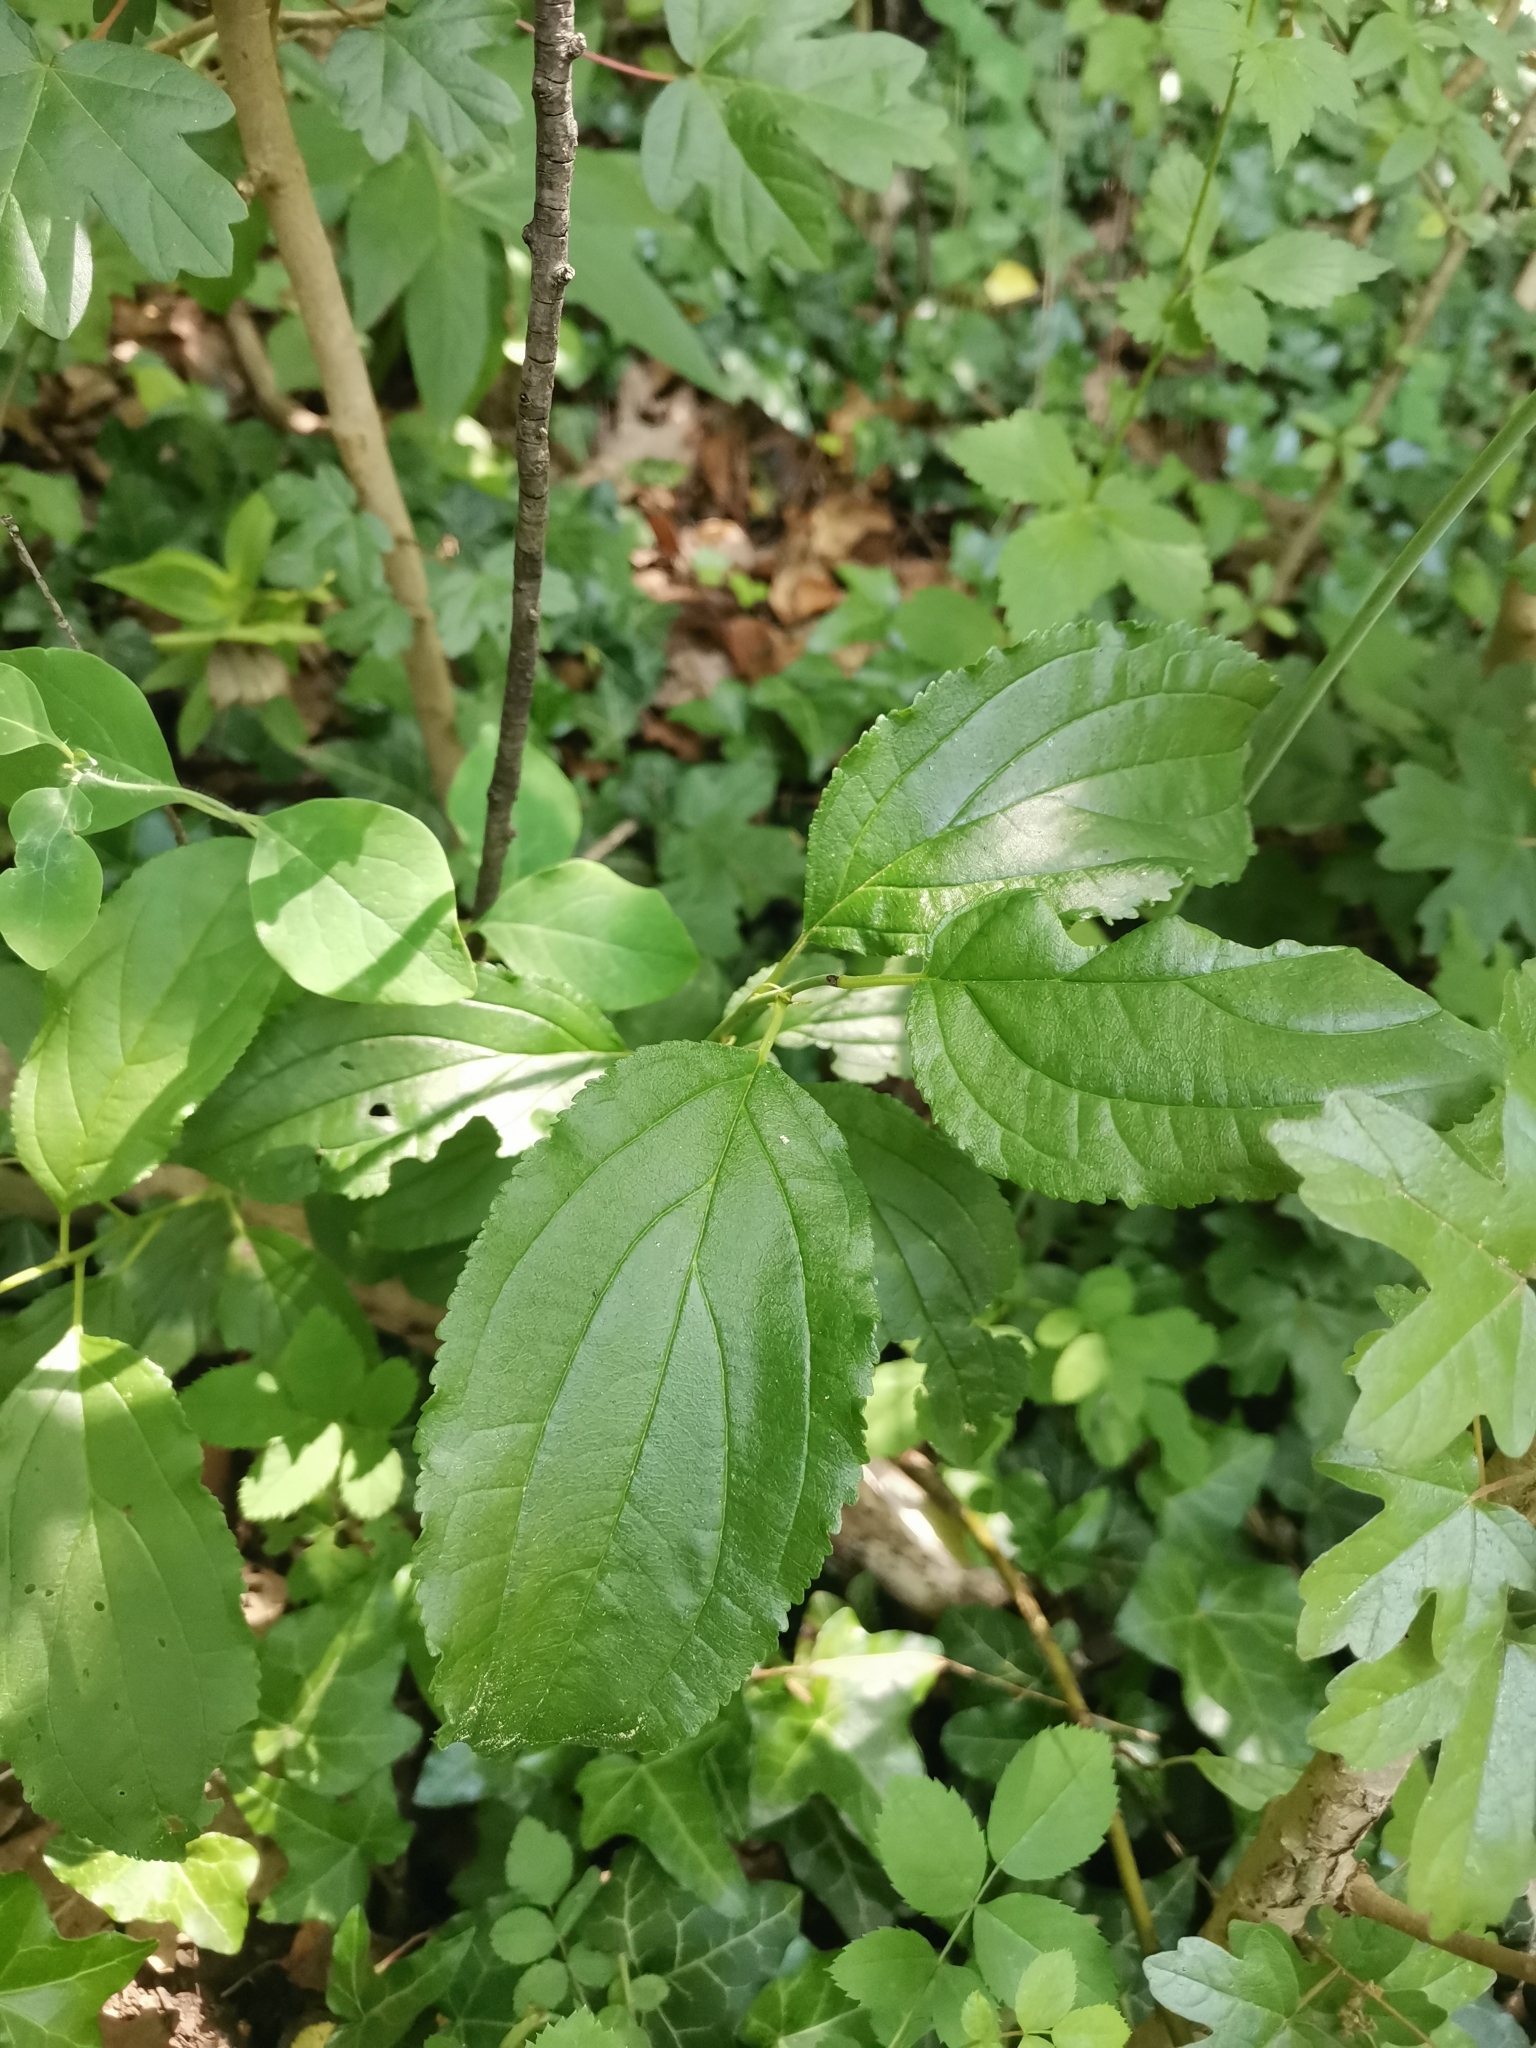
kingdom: Plantae
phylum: Tracheophyta
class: Magnoliopsida
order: Rosales
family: Rhamnaceae
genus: Rhamnus
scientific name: Rhamnus cathartica
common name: Common buckthorn
